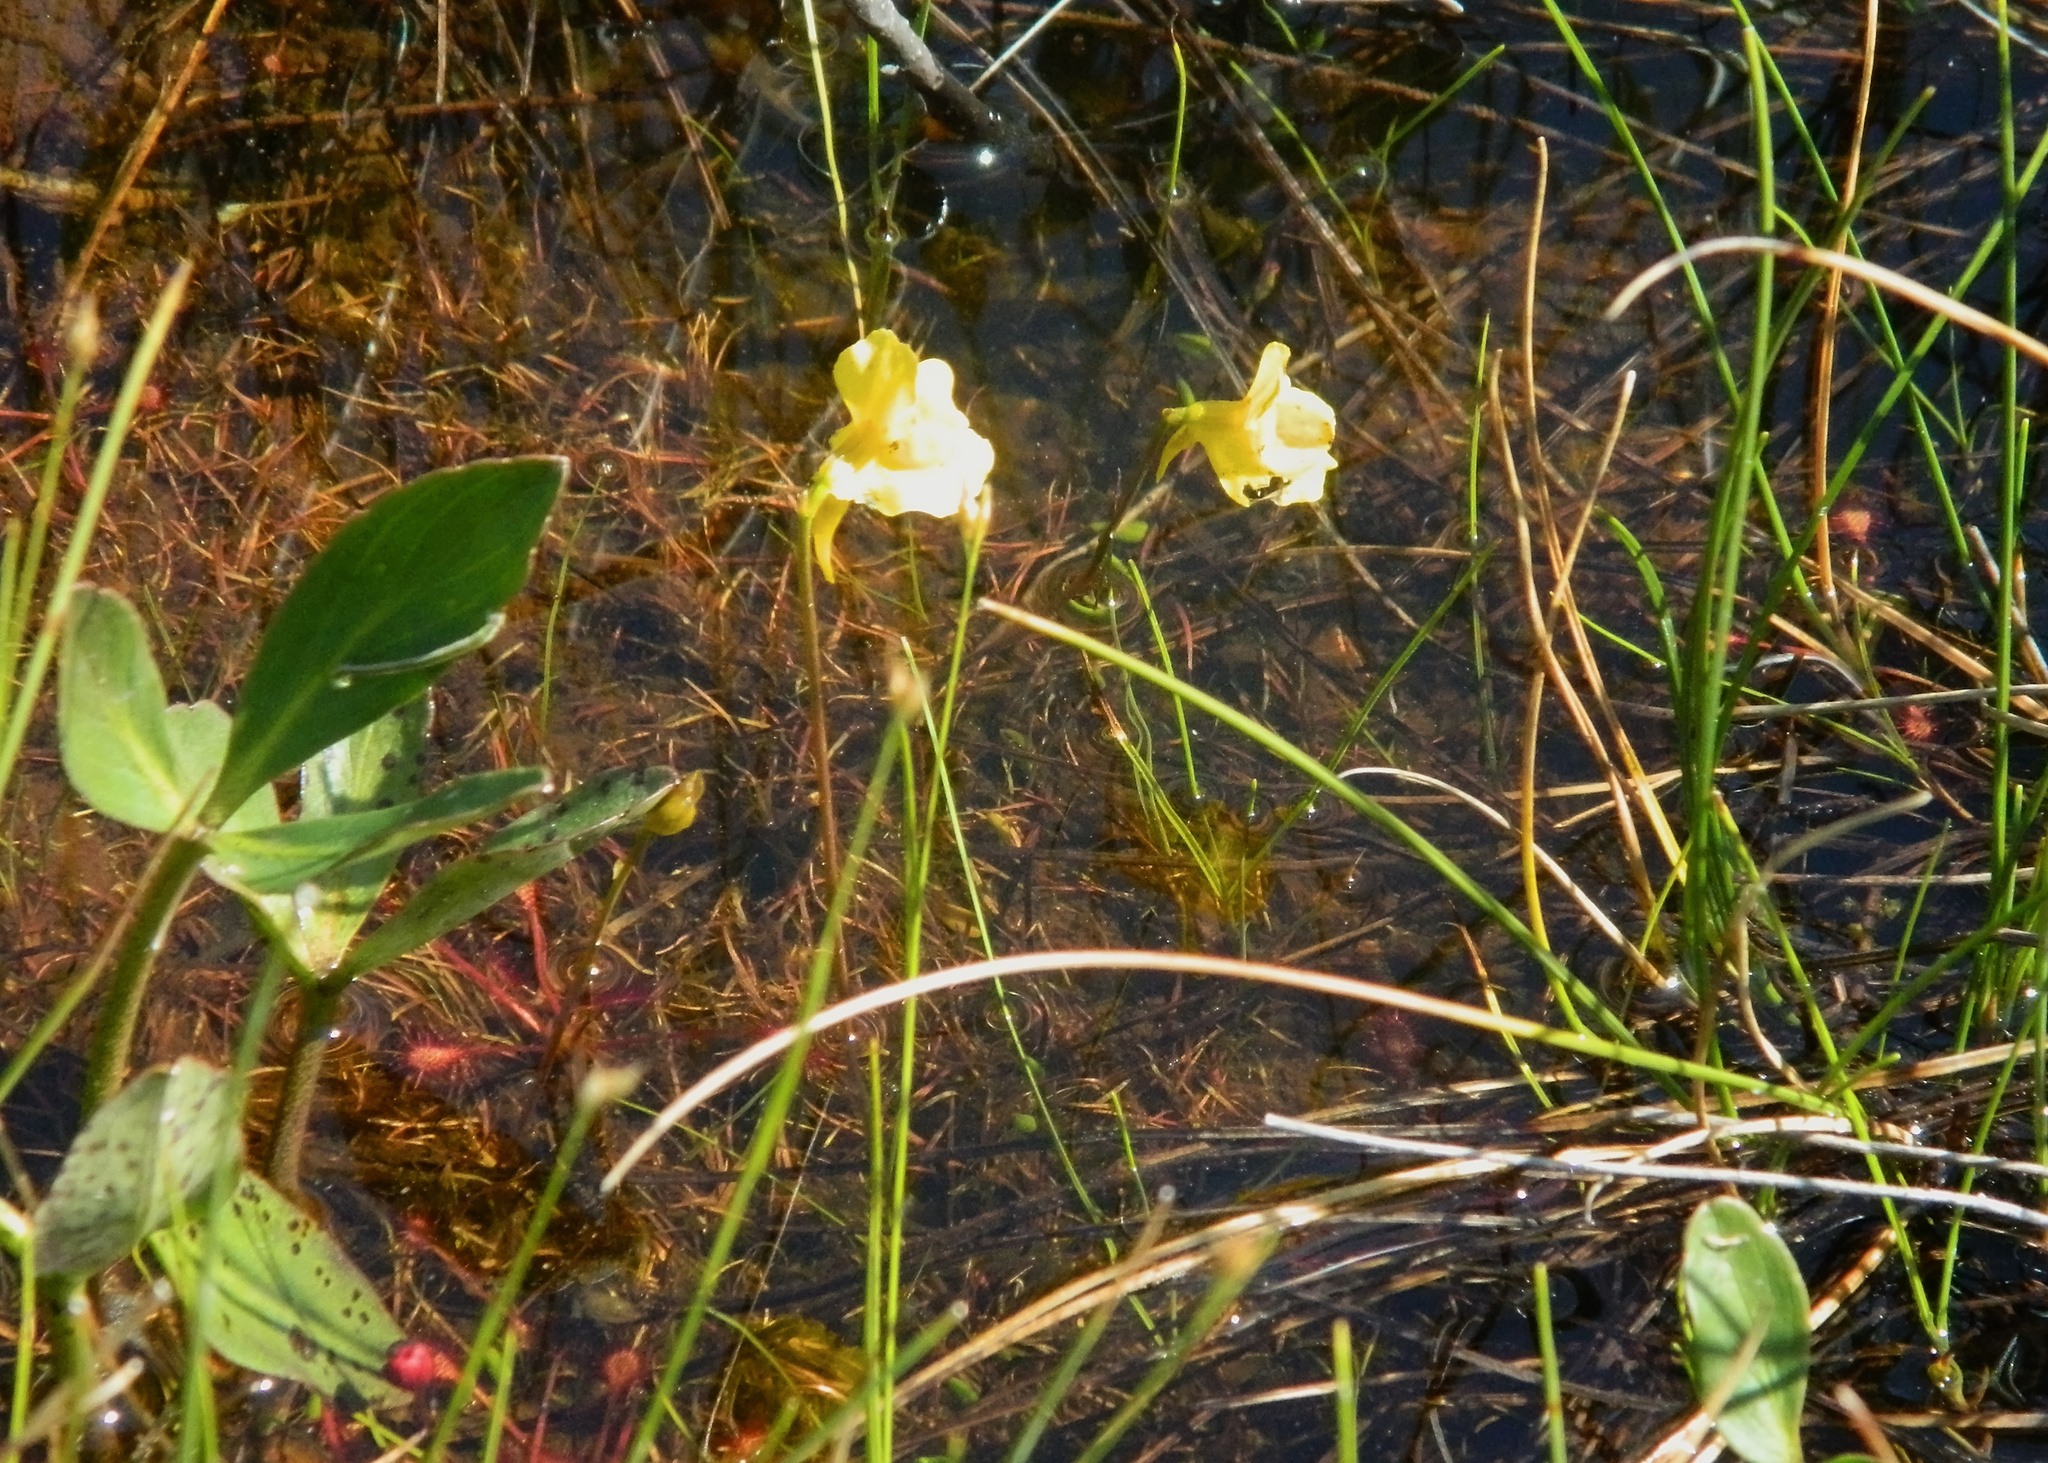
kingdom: Plantae
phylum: Tracheophyta
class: Magnoliopsida
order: Lamiales
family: Lentibulariaceae
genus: Utricularia
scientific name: Utricularia cornuta
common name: Horned bladderwort
